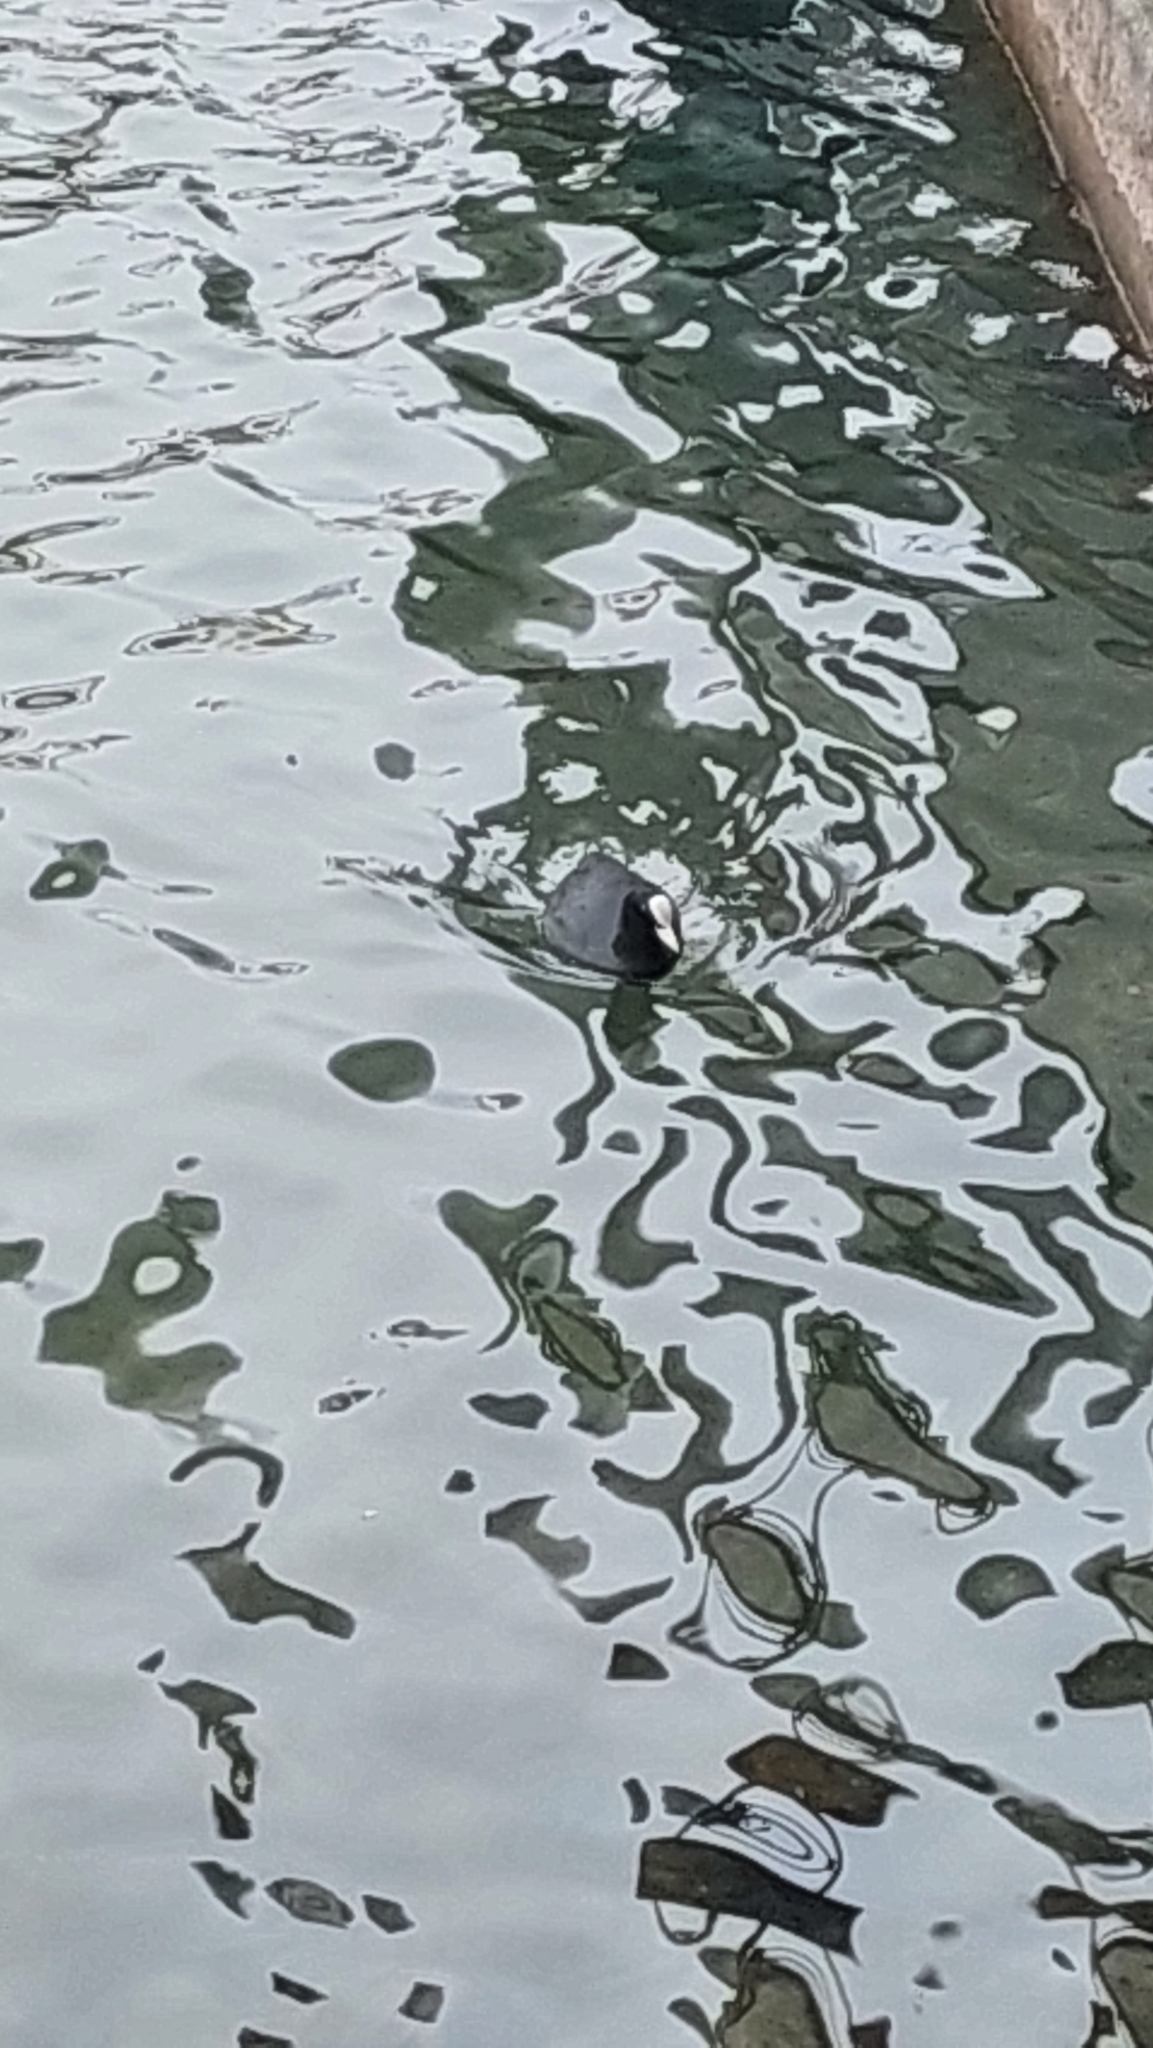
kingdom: Animalia
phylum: Chordata
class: Aves
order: Gruiformes
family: Rallidae
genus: Fulica
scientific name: Fulica atra
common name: Eurasian coot
